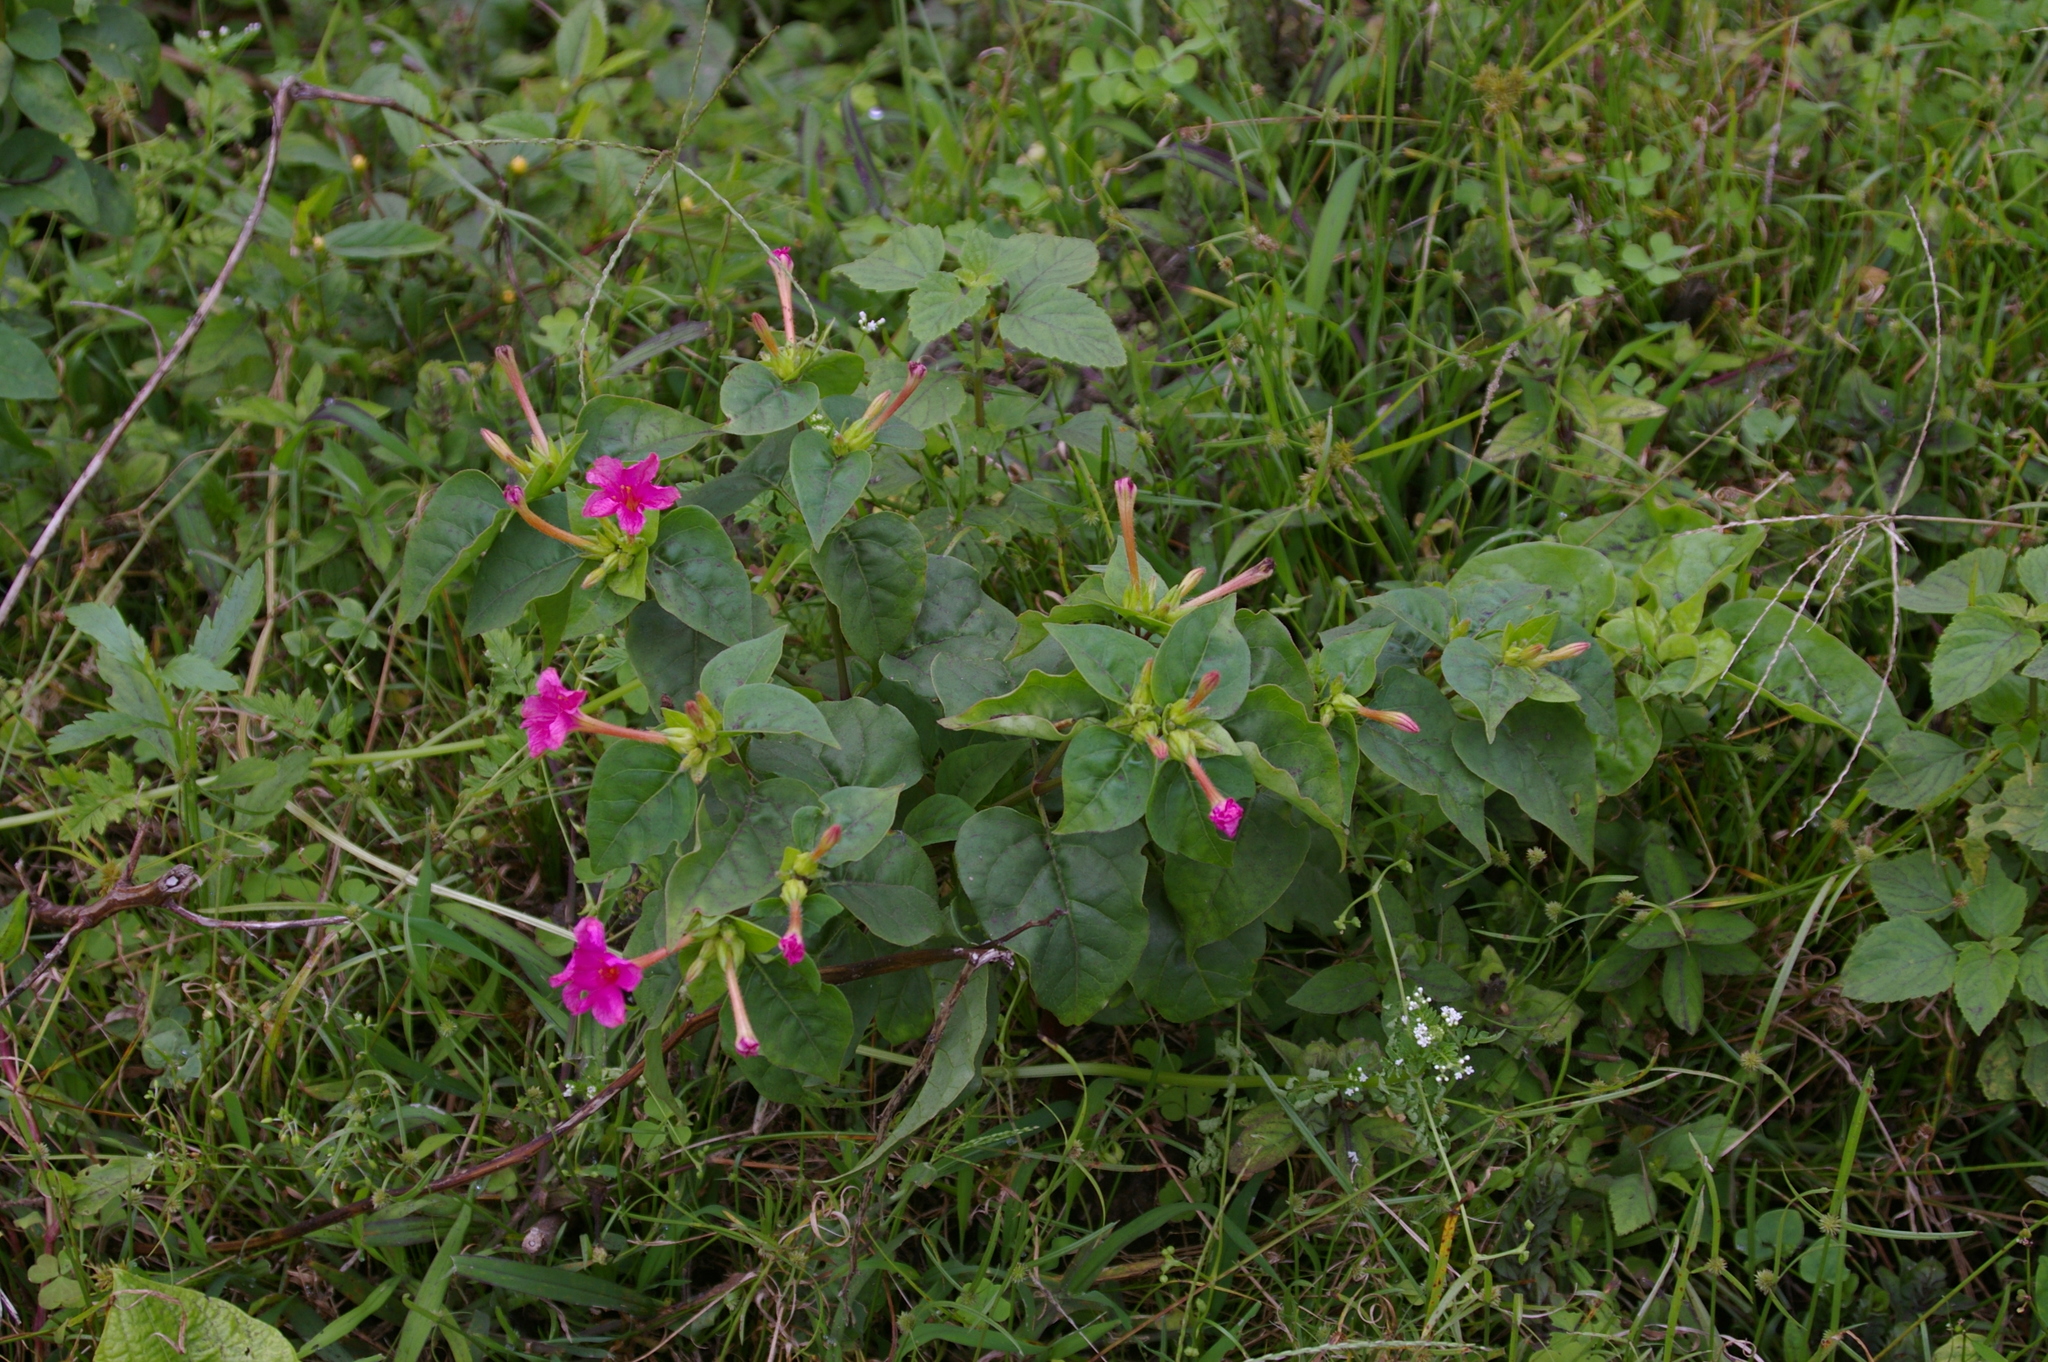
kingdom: Plantae
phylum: Tracheophyta
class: Magnoliopsida
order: Caryophyllales
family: Nyctaginaceae
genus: Mirabilis
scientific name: Mirabilis jalapa
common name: Marvel-of-peru
